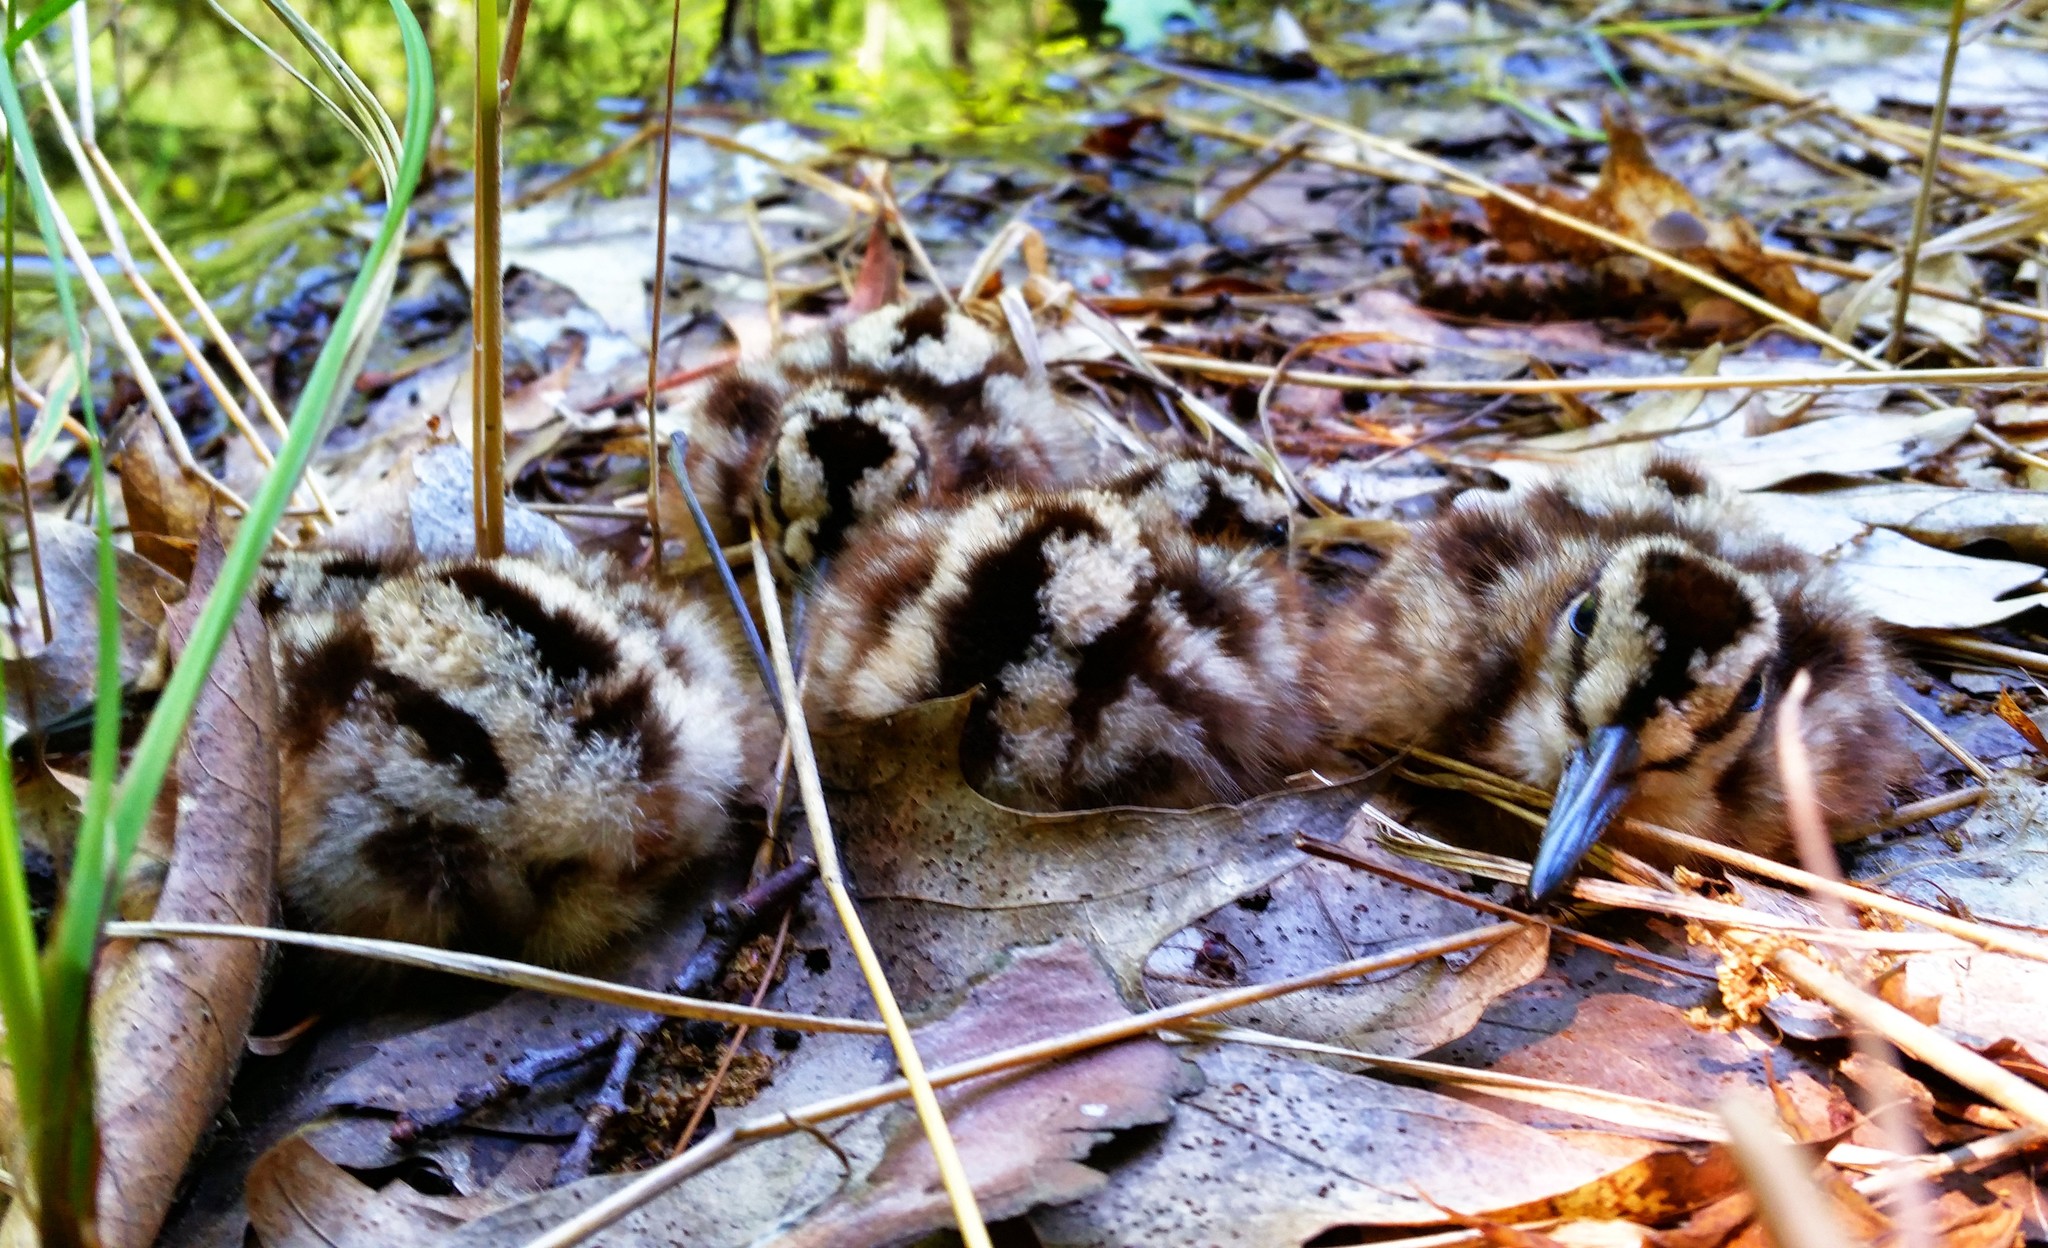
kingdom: Animalia
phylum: Chordata
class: Aves
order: Charadriiformes
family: Scolopacidae
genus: Scolopax
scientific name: Scolopax minor
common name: American woodcock
